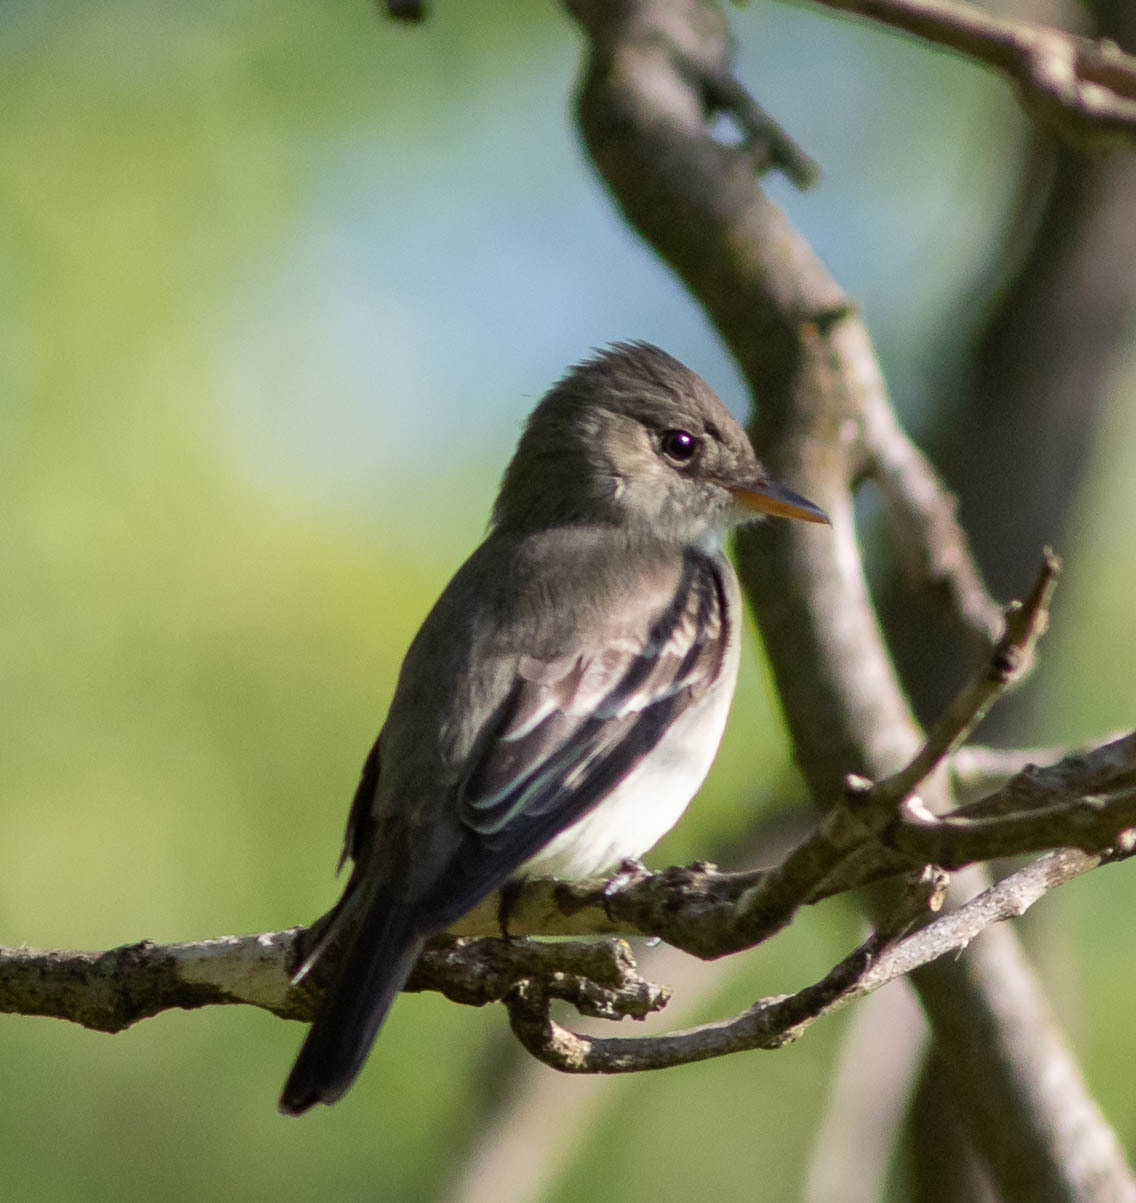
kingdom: Animalia
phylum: Chordata
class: Aves
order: Passeriformes
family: Tyrannidae
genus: Contopus
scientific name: Contopus virens
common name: Eastern wood-pewee
